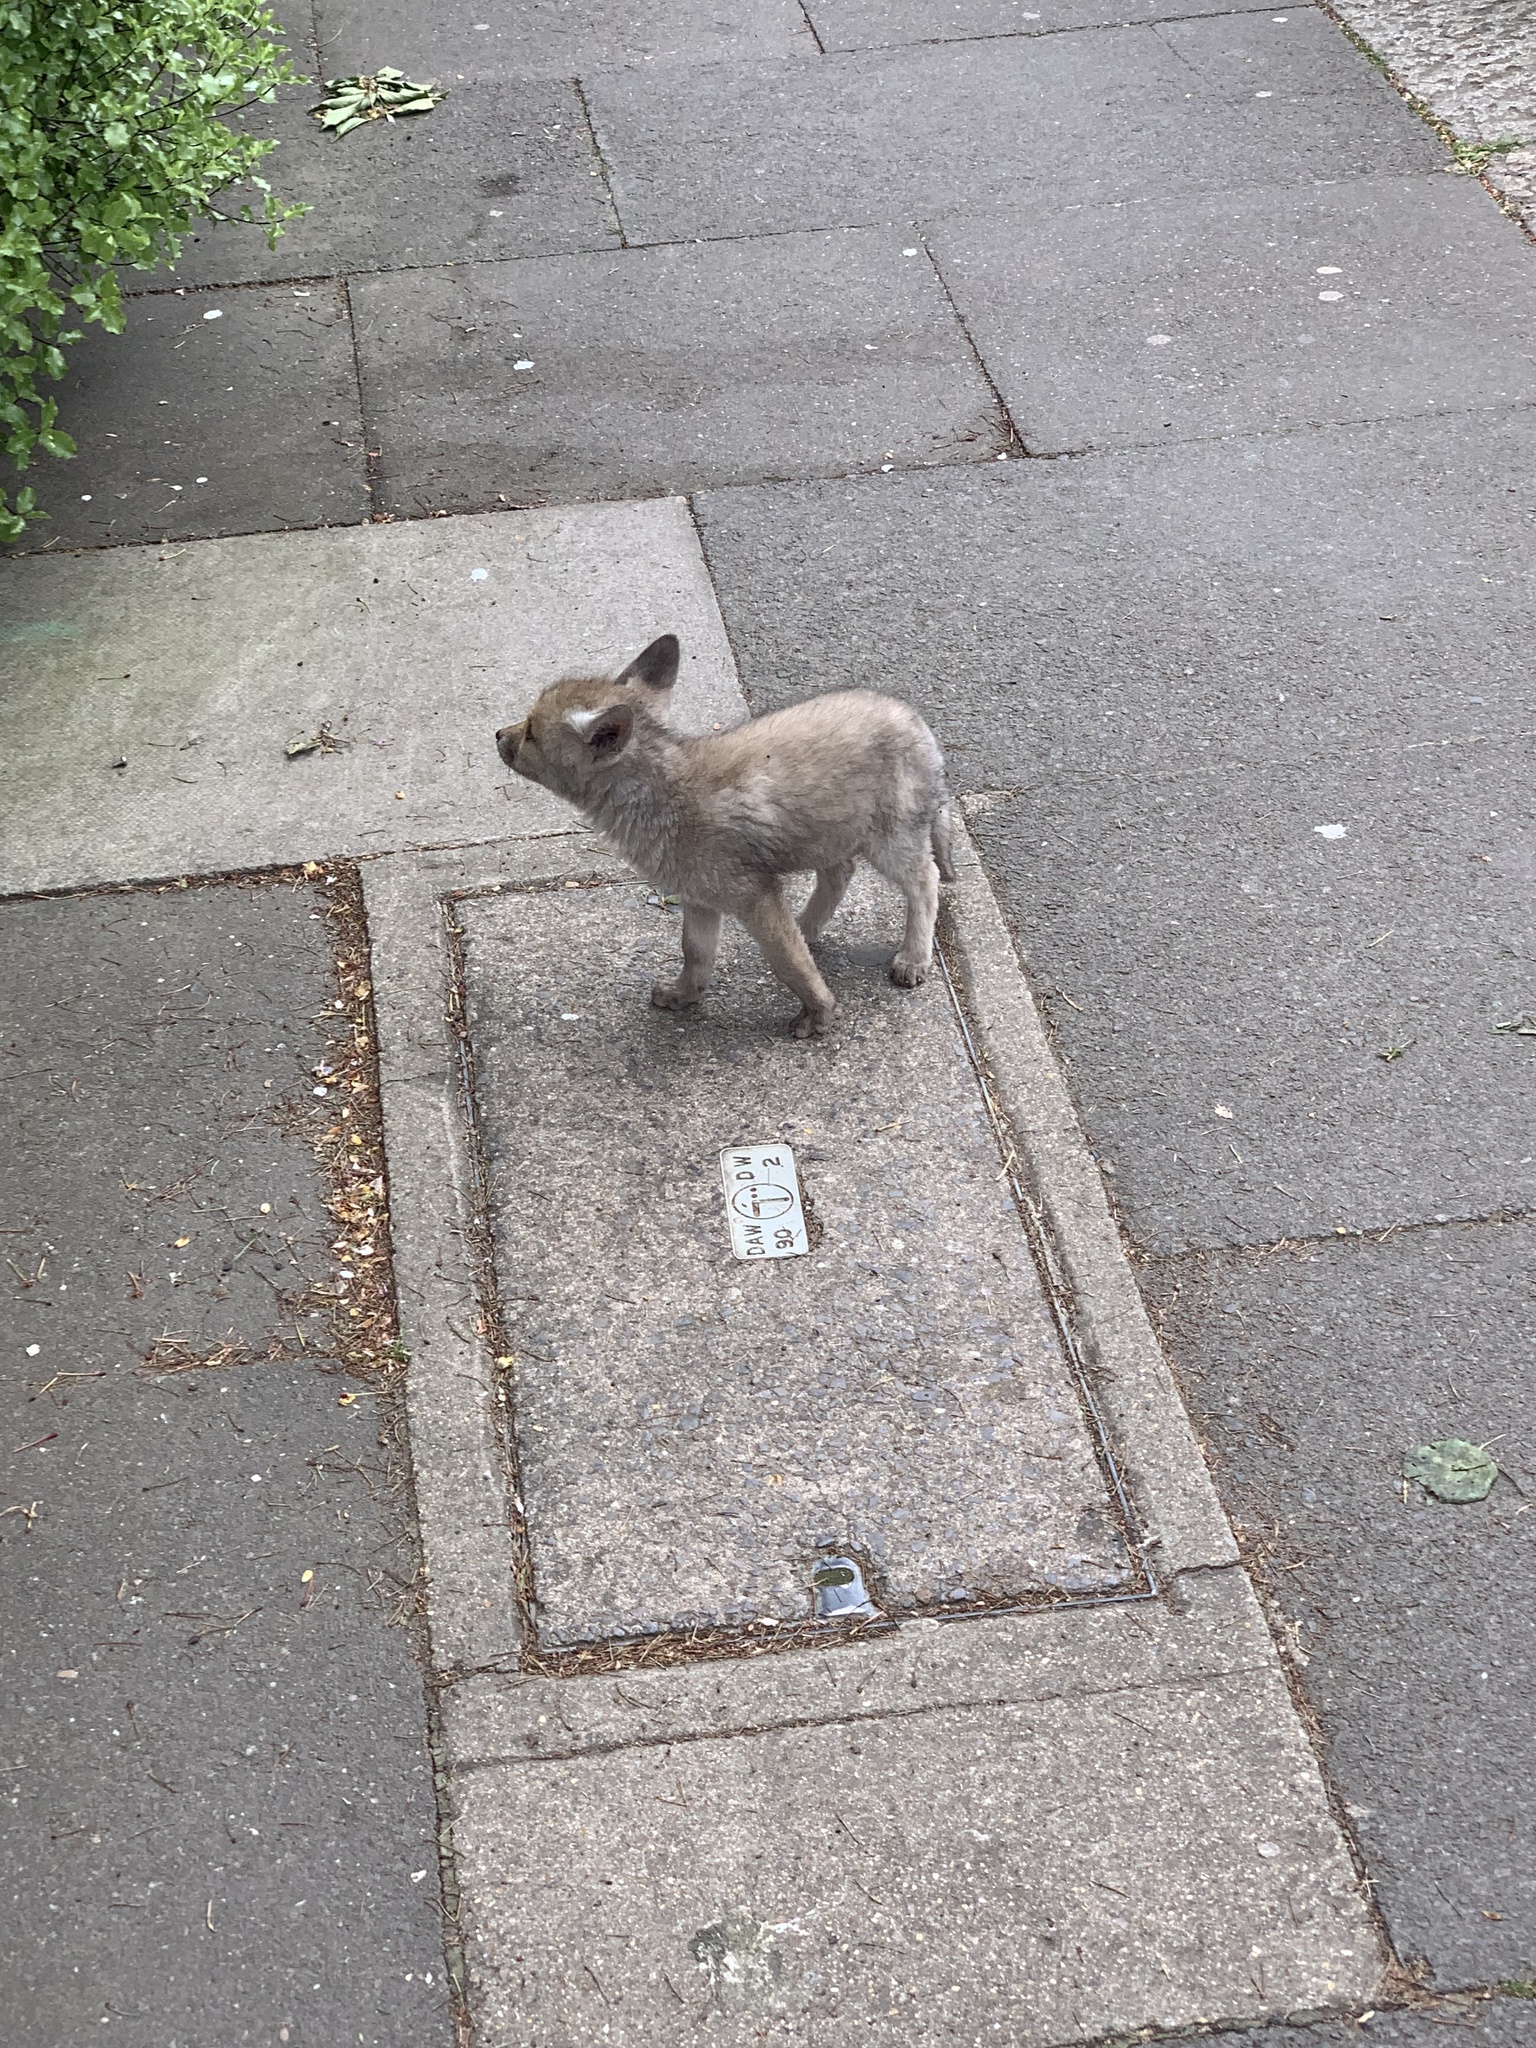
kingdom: Animalia
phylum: Chordata
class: Mammalia
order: Carnivora
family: Canidae
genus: Vulpes
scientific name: Vulpes vulpes
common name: Red fox
